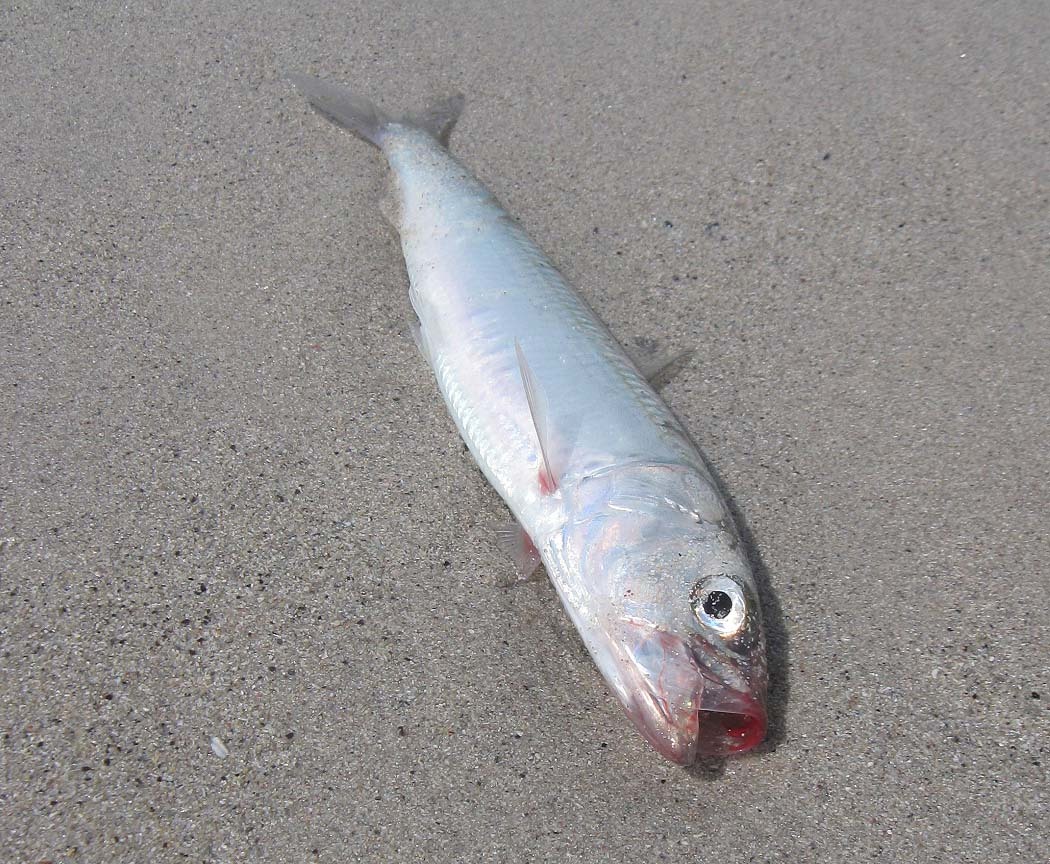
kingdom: Animalia
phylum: Chordata
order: Clupeiformes
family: Clupeidae
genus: Sardinops
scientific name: Sardinops sagax
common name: Pilchard
